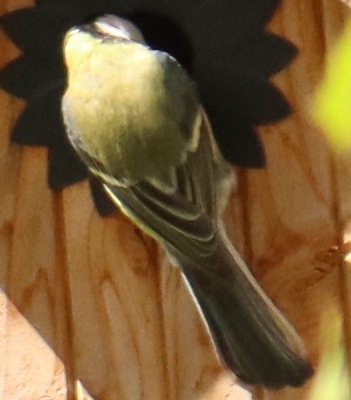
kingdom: Animalia
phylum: Chordata
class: Aves
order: Passeriformes
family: Paridae
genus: Parus
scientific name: Parus major
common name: Great tit
